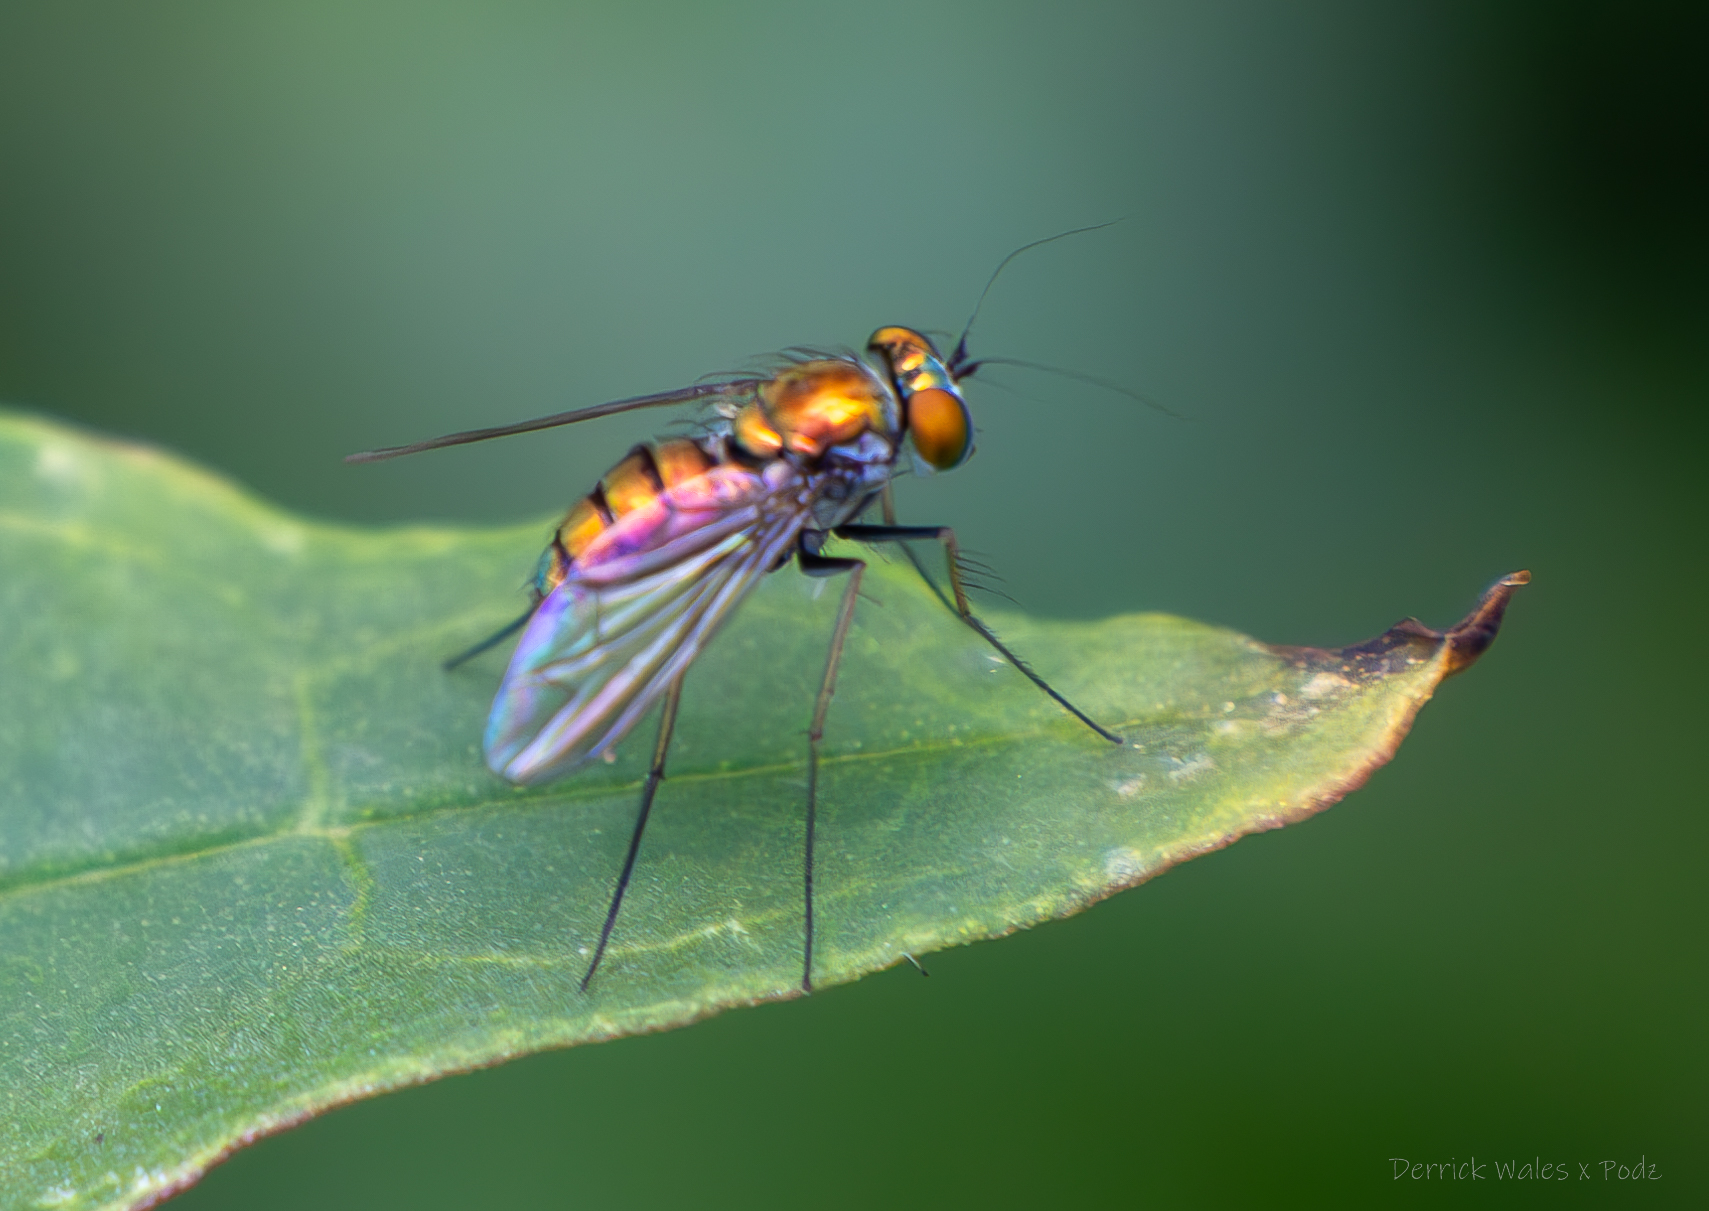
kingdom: Animalia
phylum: Arthropoda
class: Insecta
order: Diptera
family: Dolichopodidae
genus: Condylostylus
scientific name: Condylostylus
